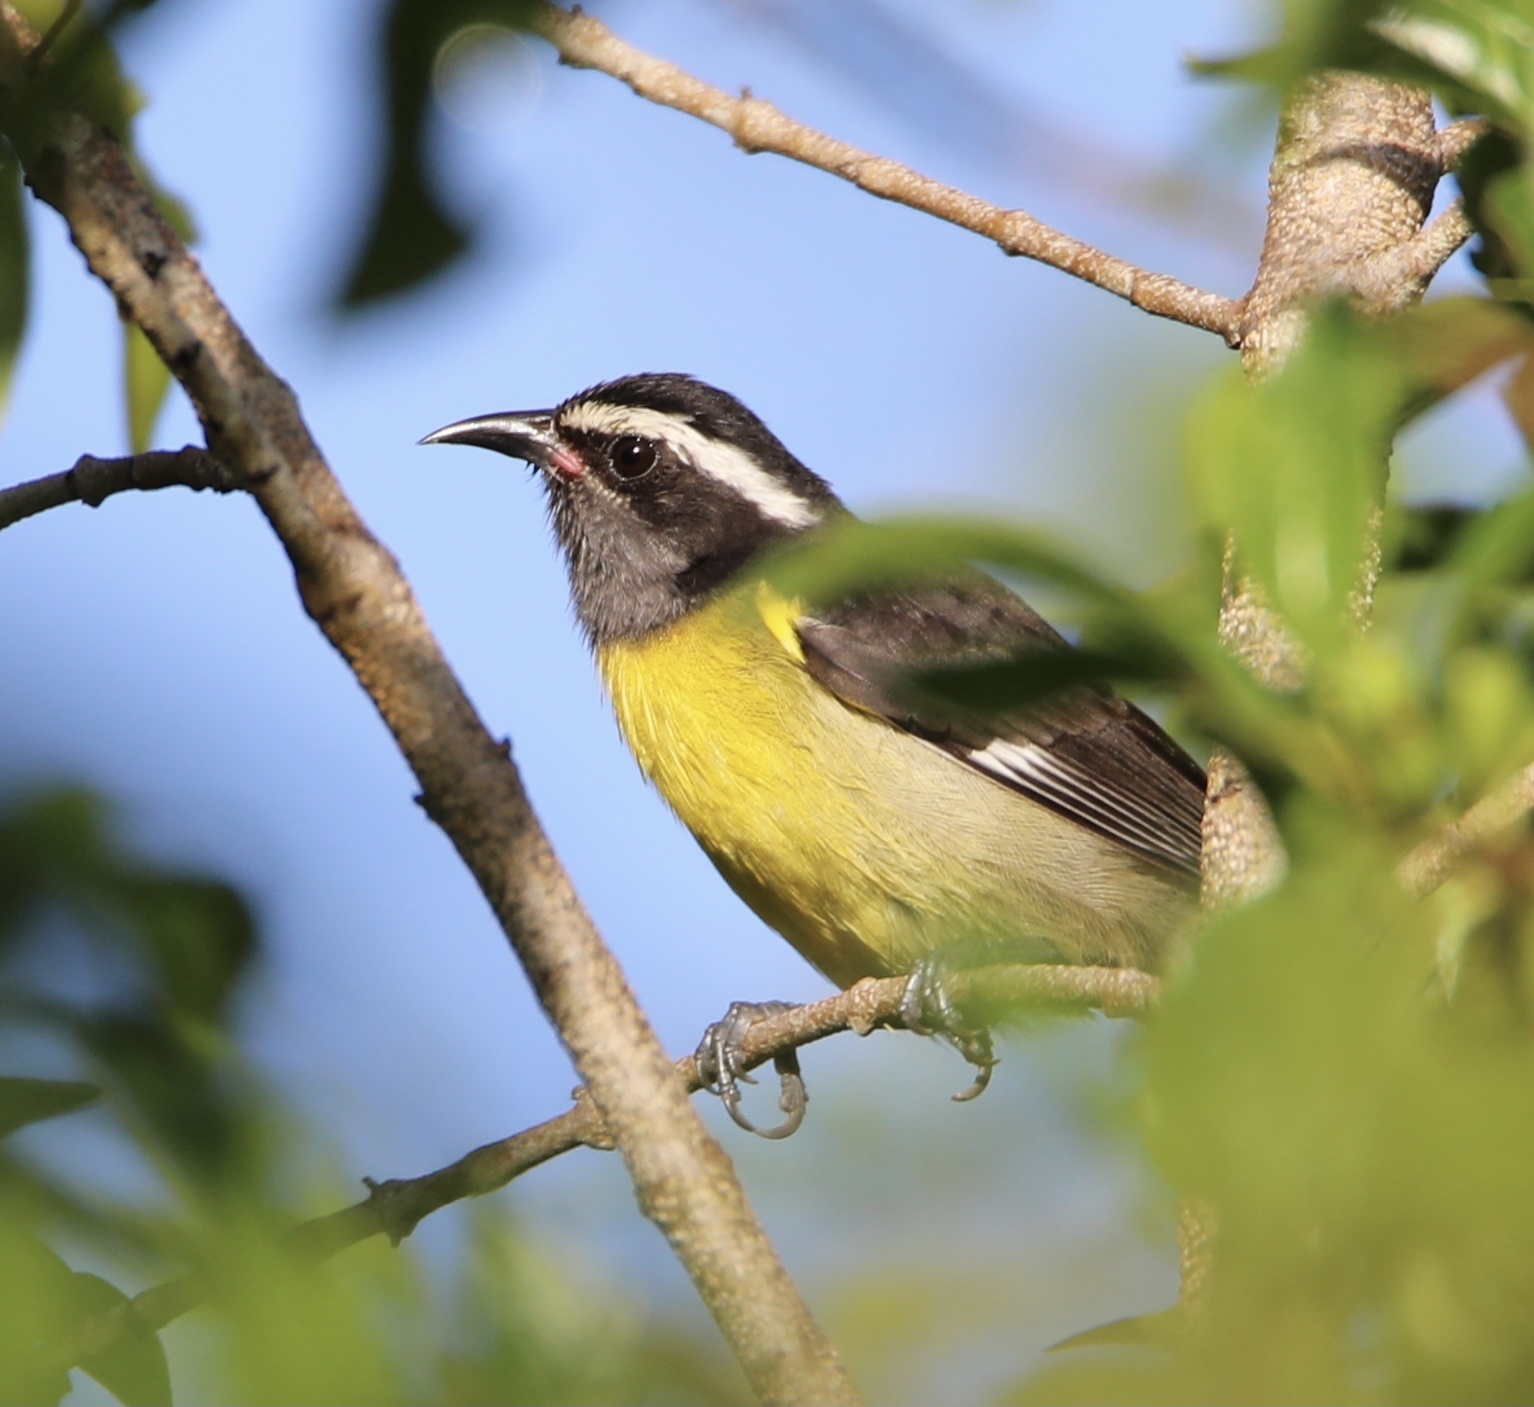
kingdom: Animalia
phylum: Chordata
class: Aves
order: Passeriformes
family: Thraupidae
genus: Coereba
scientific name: Coereba flaveola
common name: Bananaquit
